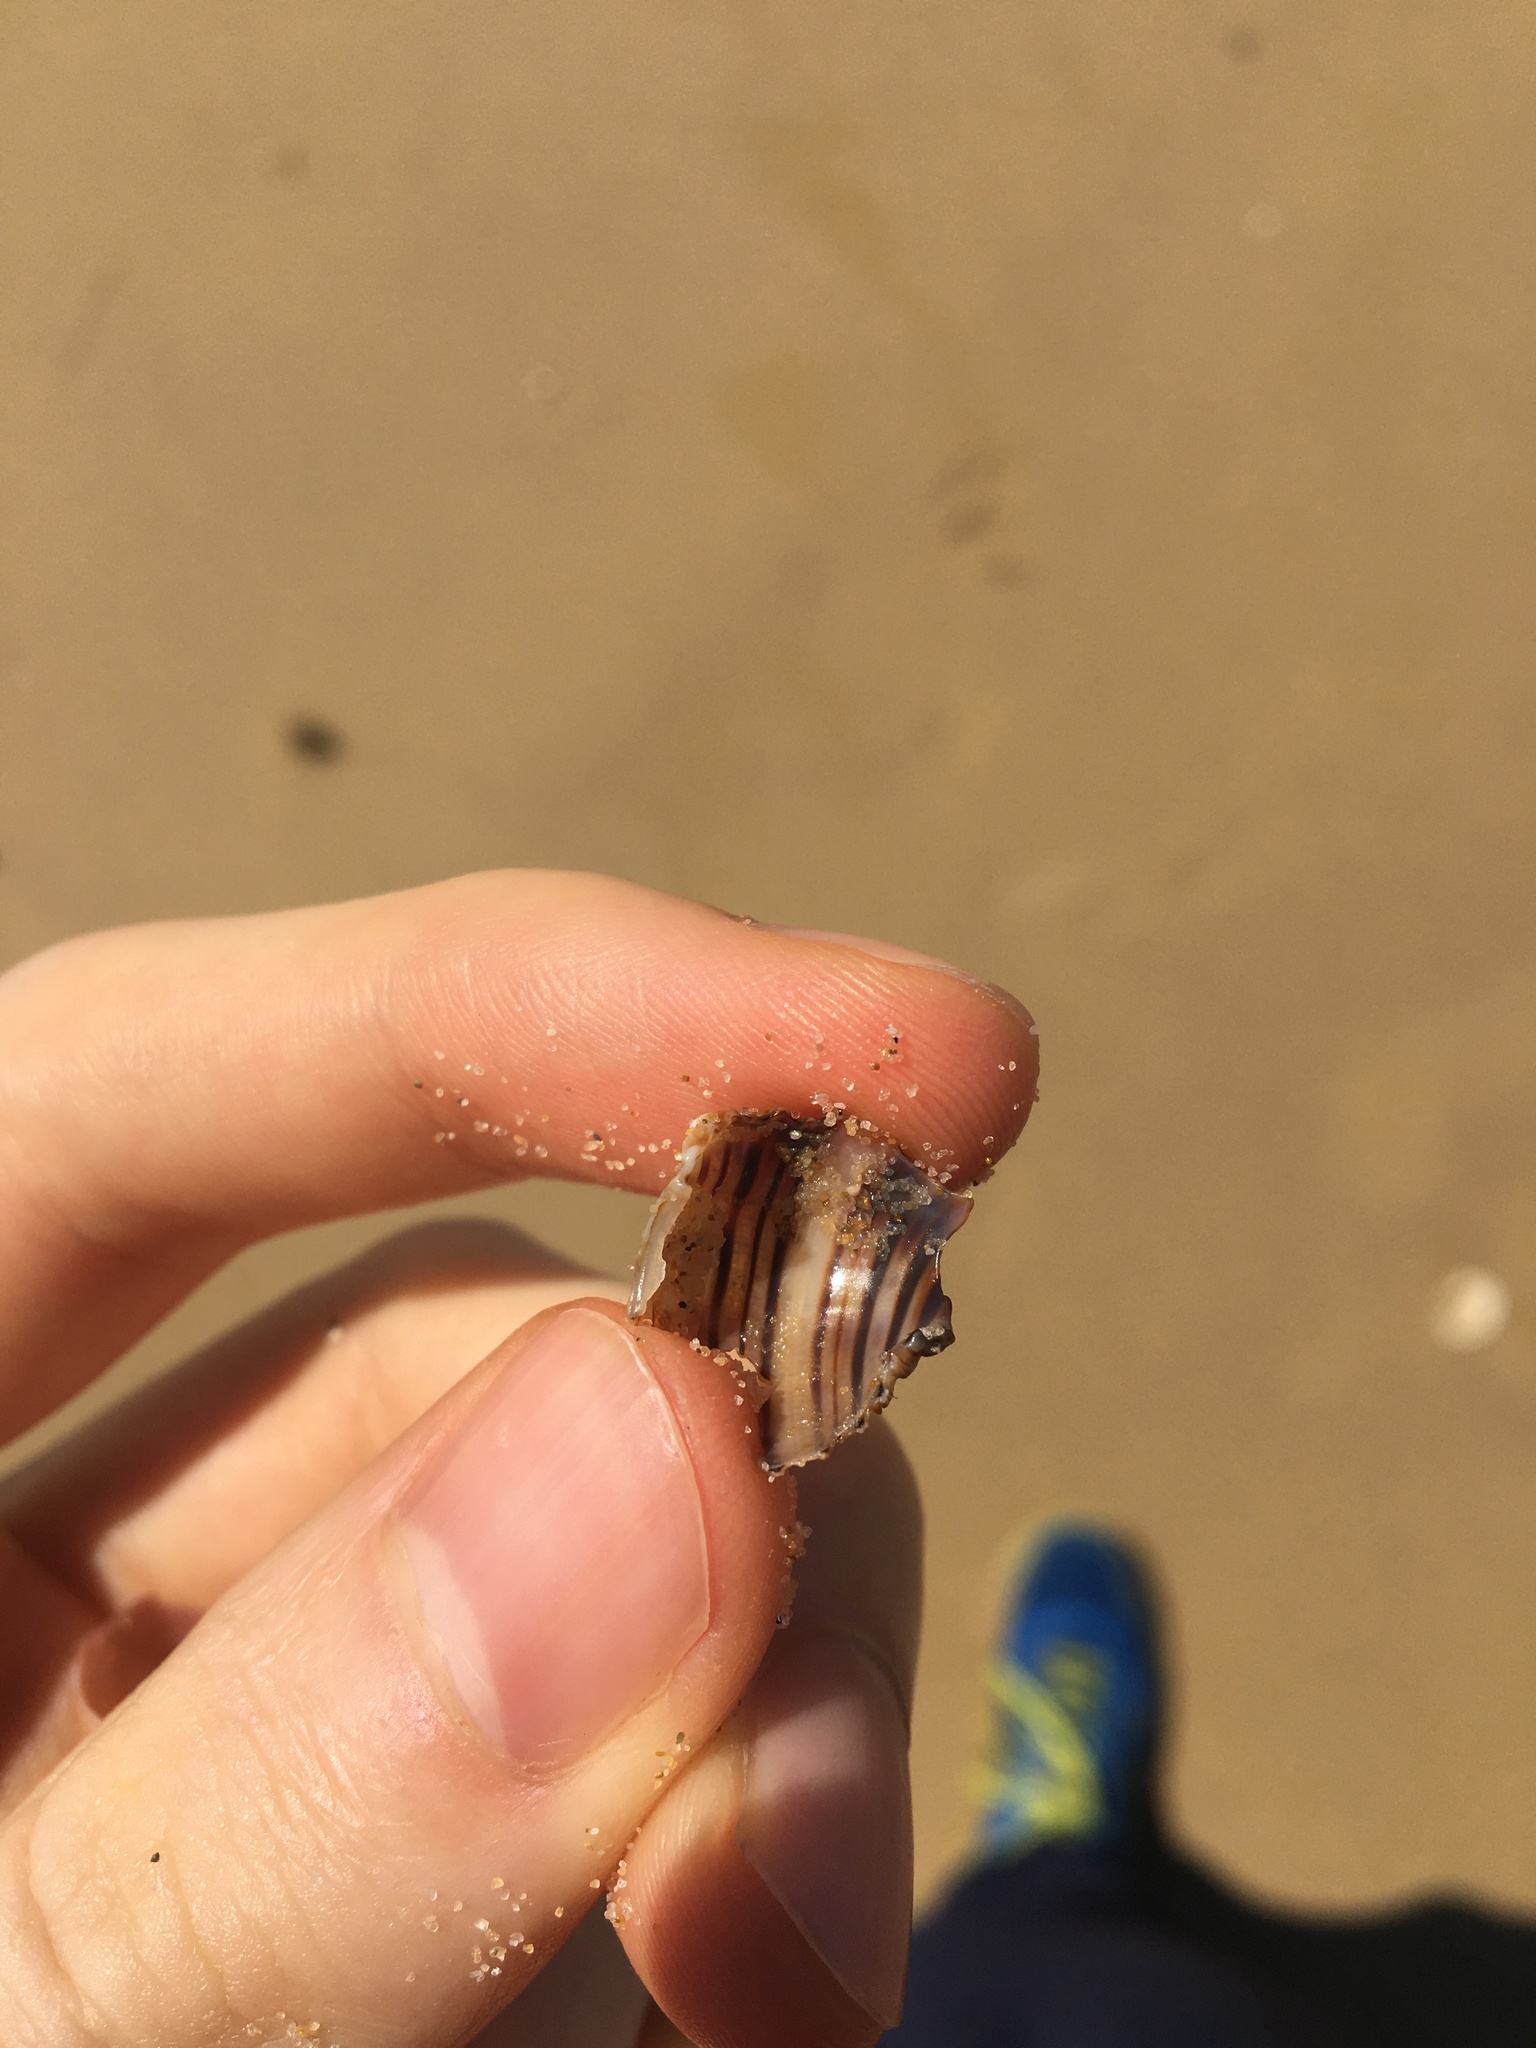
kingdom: Animalia
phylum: Mollusca
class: Gastropoda
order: Littorinimorpha
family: Cymatiidae
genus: Cabestana
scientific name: Cabestana spengleri
